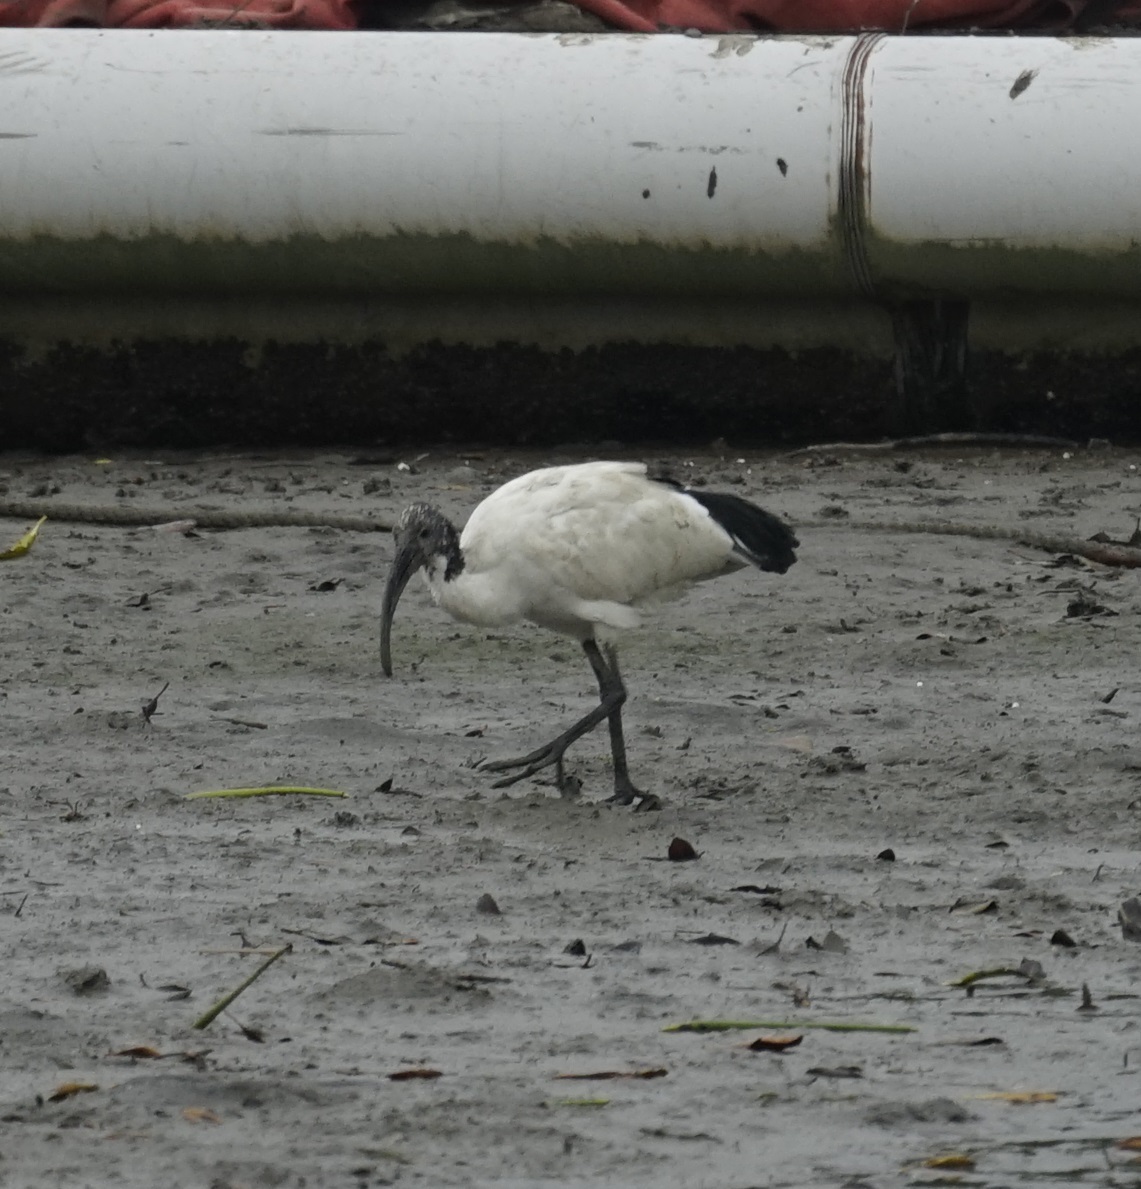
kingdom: Animalia
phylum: Chordata
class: Aves
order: Pelecaniformes
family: Threskiornithidae
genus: Threskiornis
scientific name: Threskiornis aethiopicus
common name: Sacred ibis
